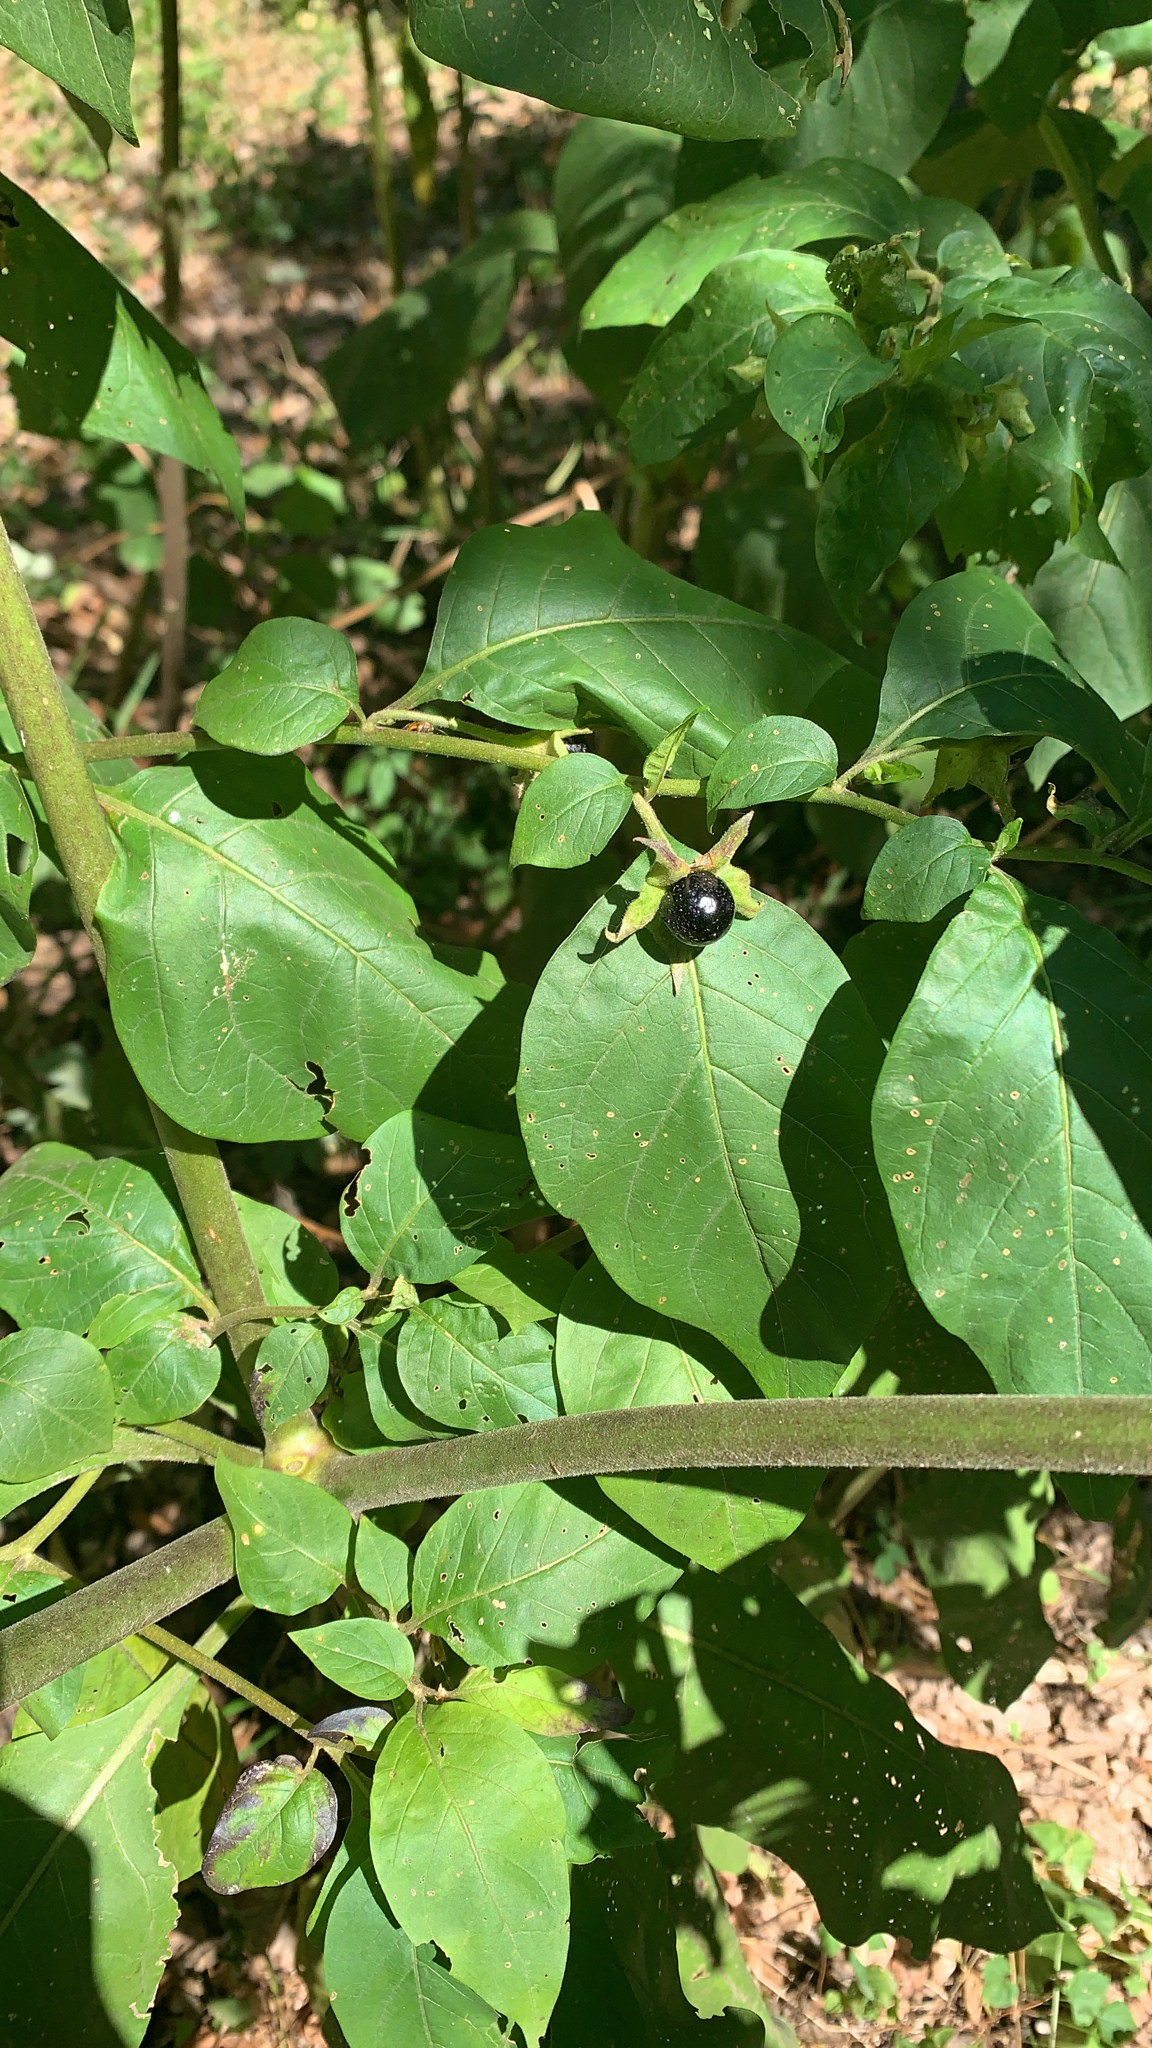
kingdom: Plantae
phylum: Tracheophyta
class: Magnoliopsida
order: Solanales
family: Solanaceae
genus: Atropa
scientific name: Atropa belladonna
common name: Deadly nightshade
